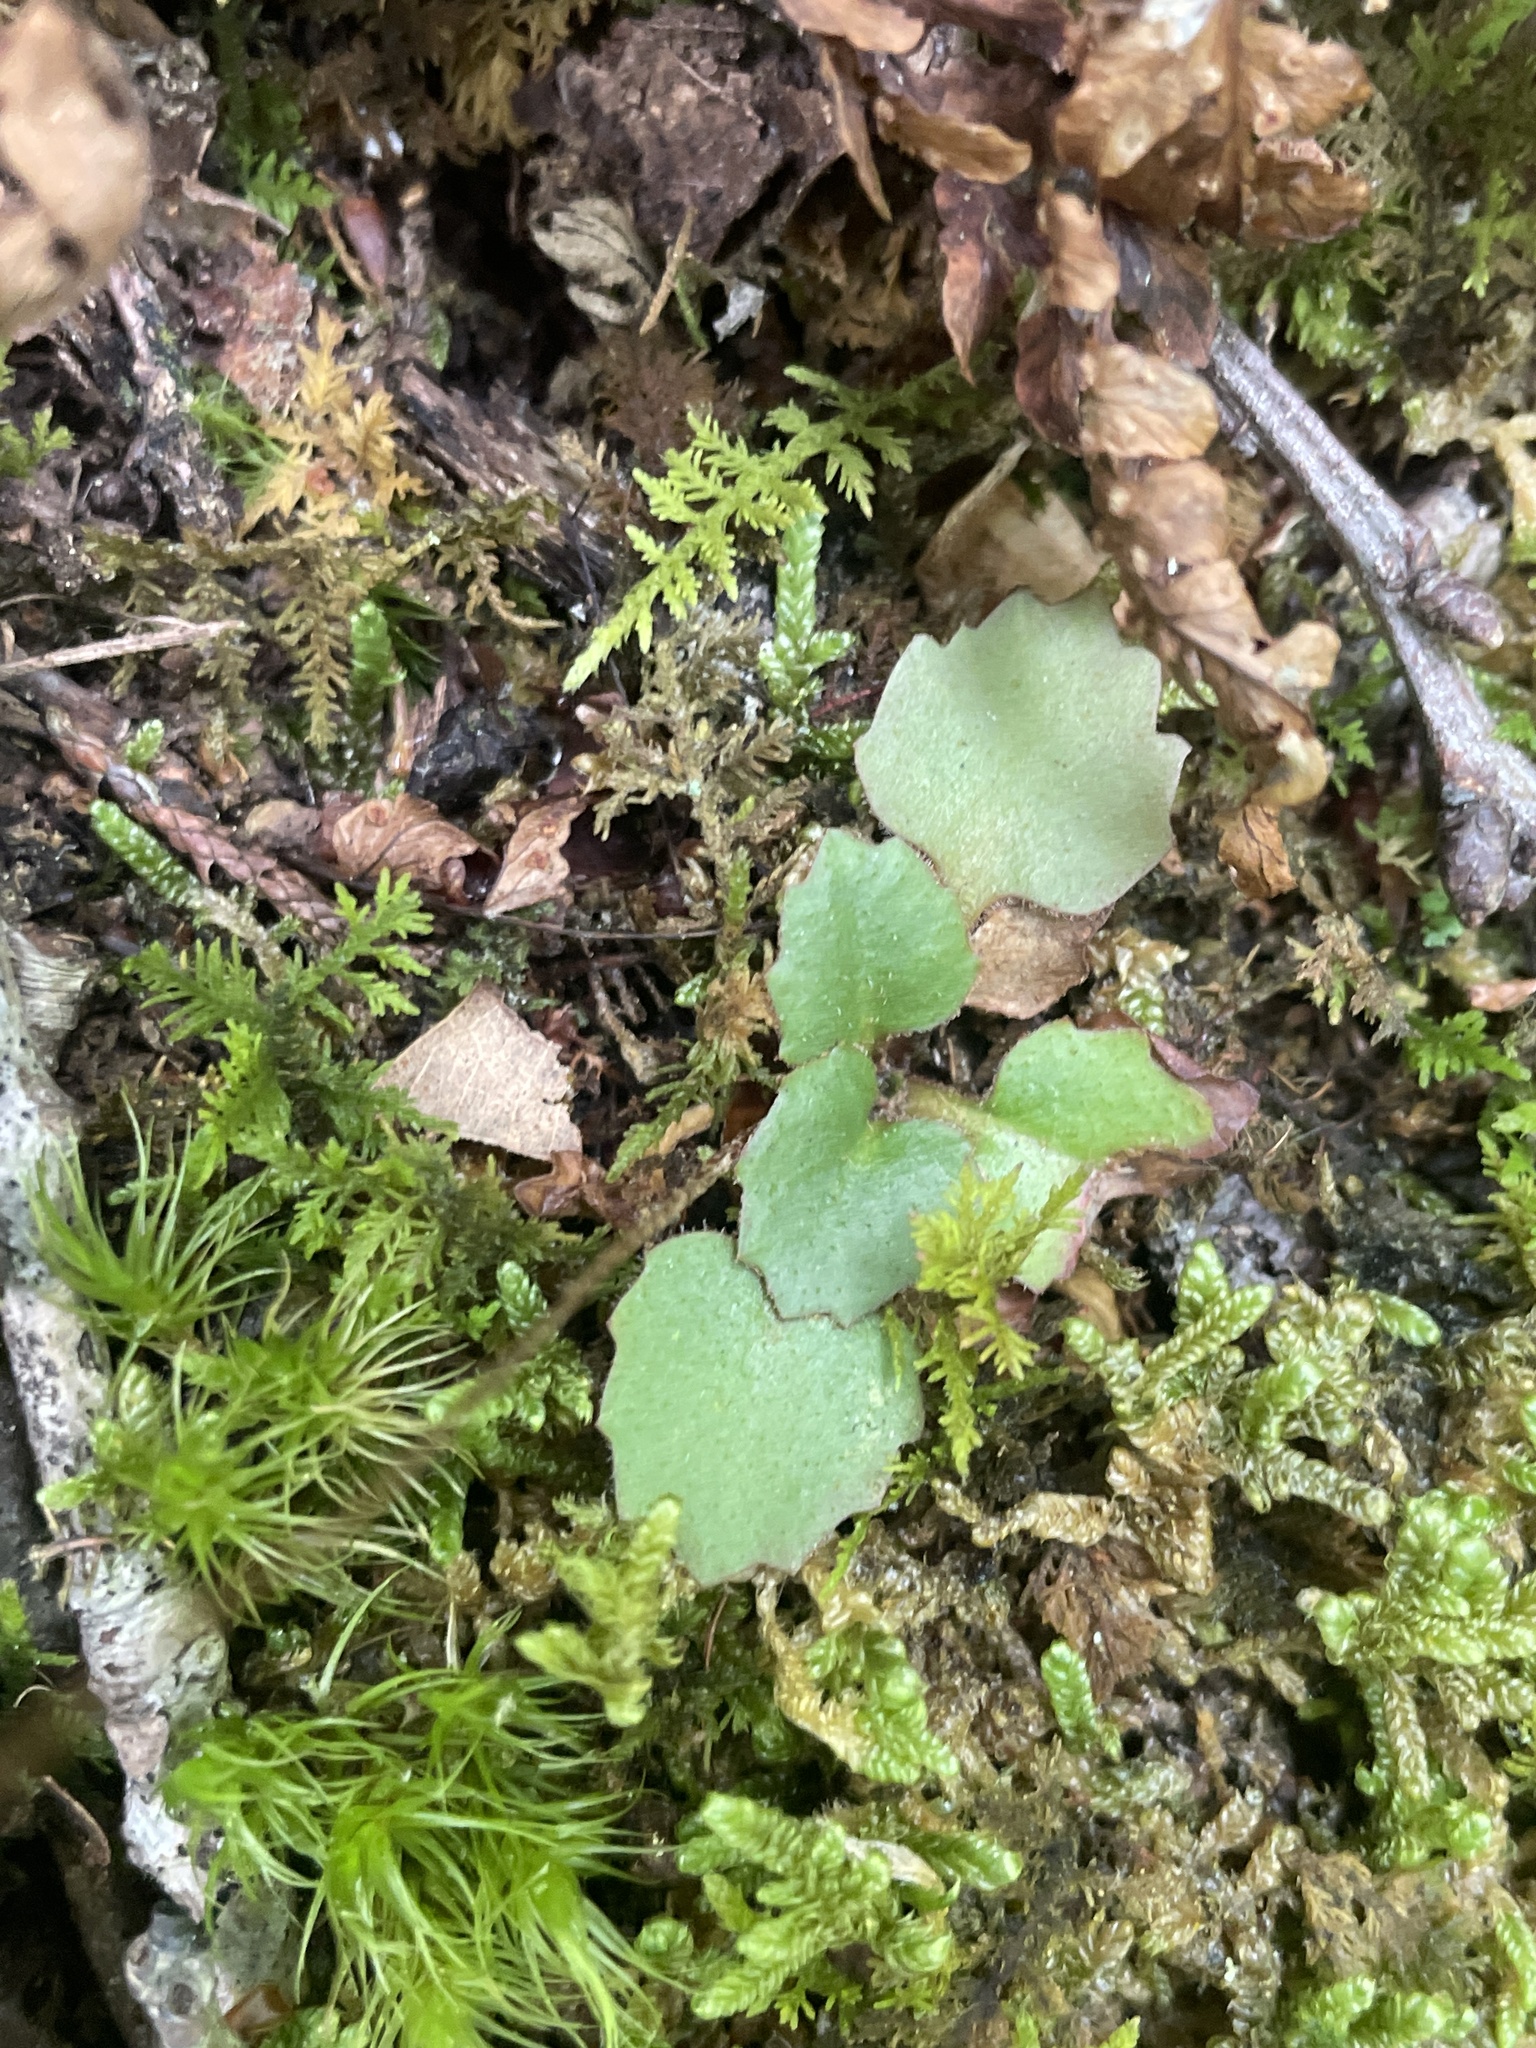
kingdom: Plantae
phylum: Tracheophyta
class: Magnoliopsida
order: Saxifragales
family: Saxifragaceae
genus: Micranthes
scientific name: Micranthes virginiensis
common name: Early saxifrage
